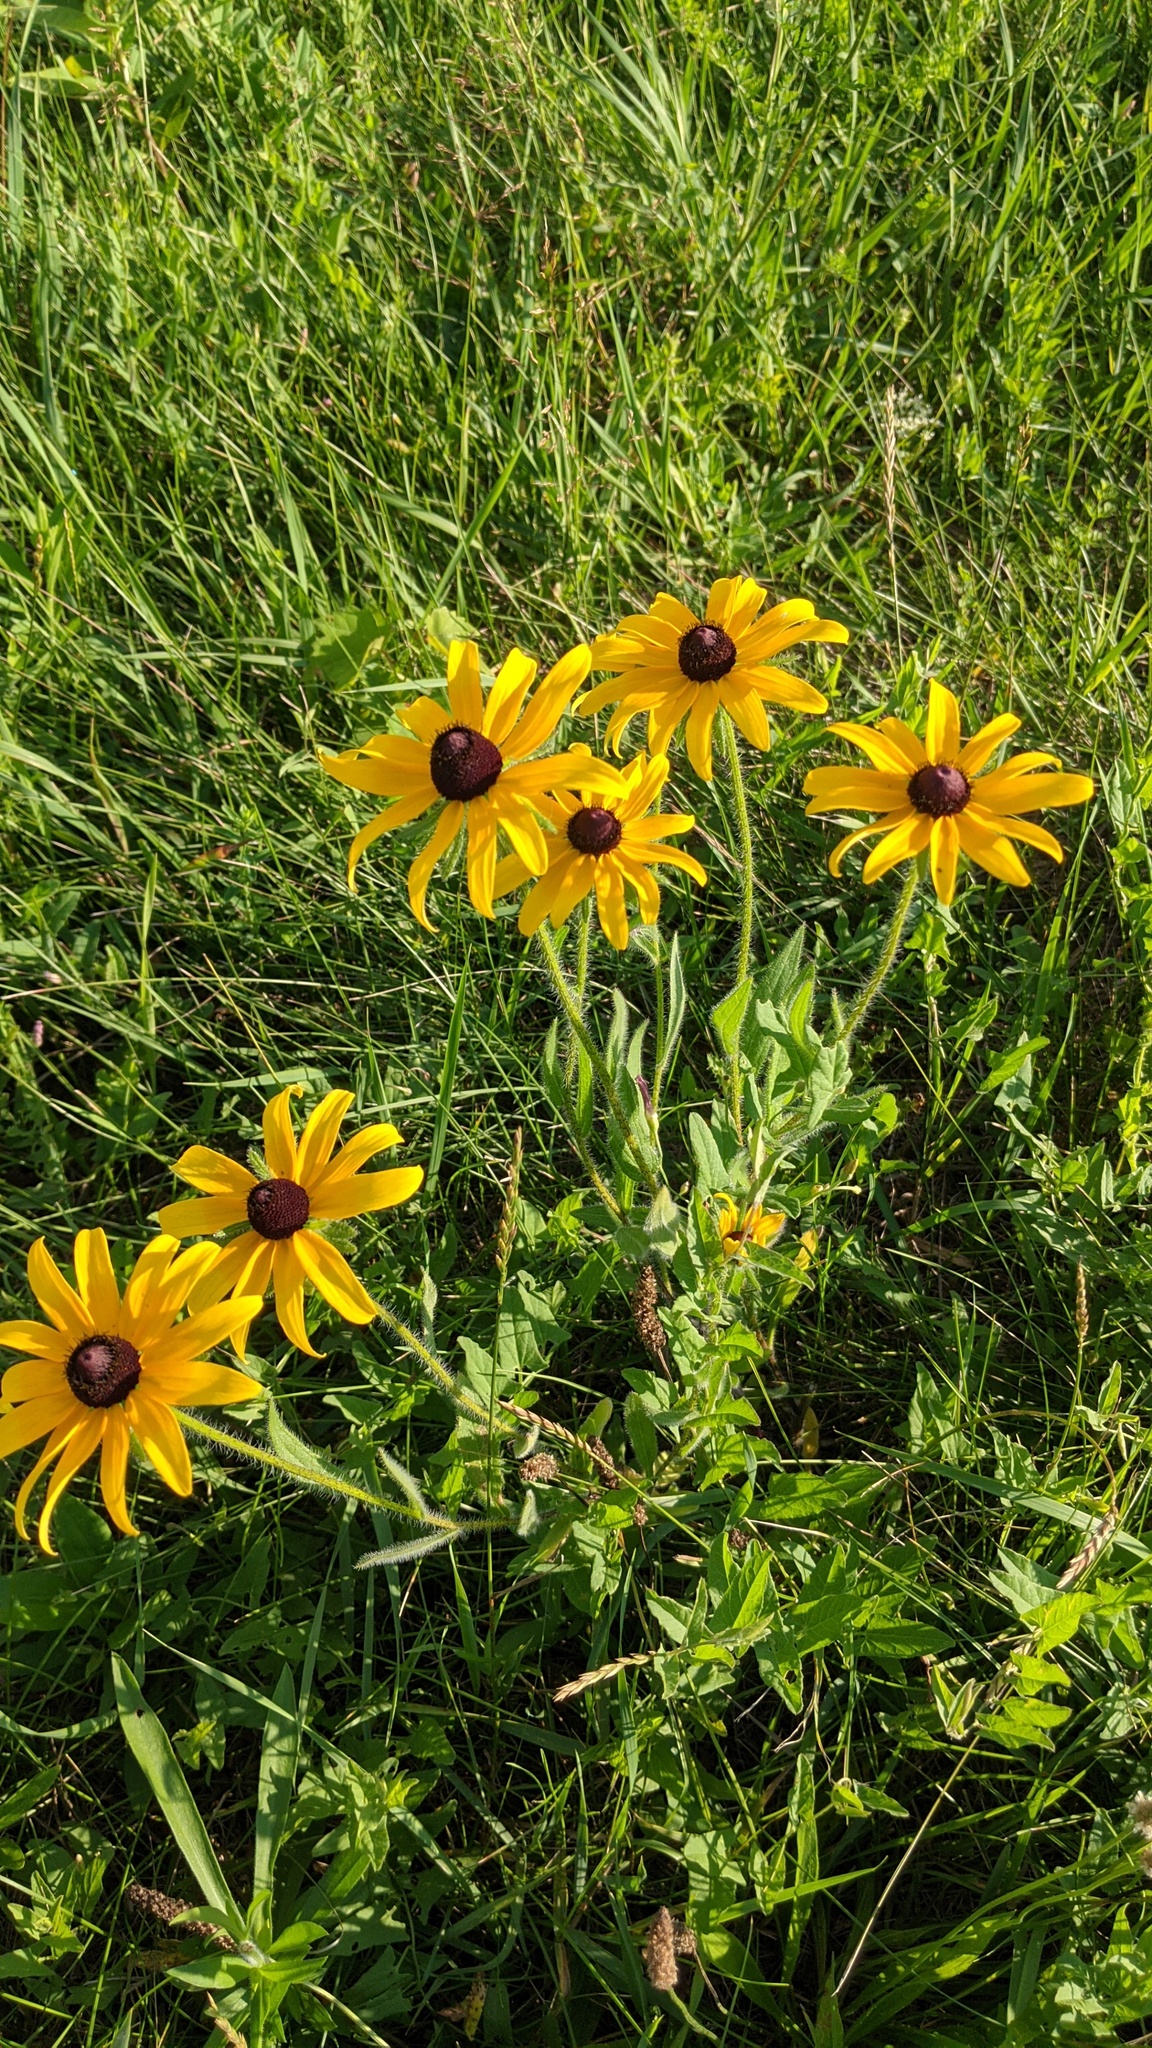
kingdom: Plantae
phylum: Tracheophyta
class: Magnoliopsida
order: Asterales
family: Asteraceae
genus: Rudbeckia
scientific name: Rudbeckia hirta
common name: Black-eyed-susan
